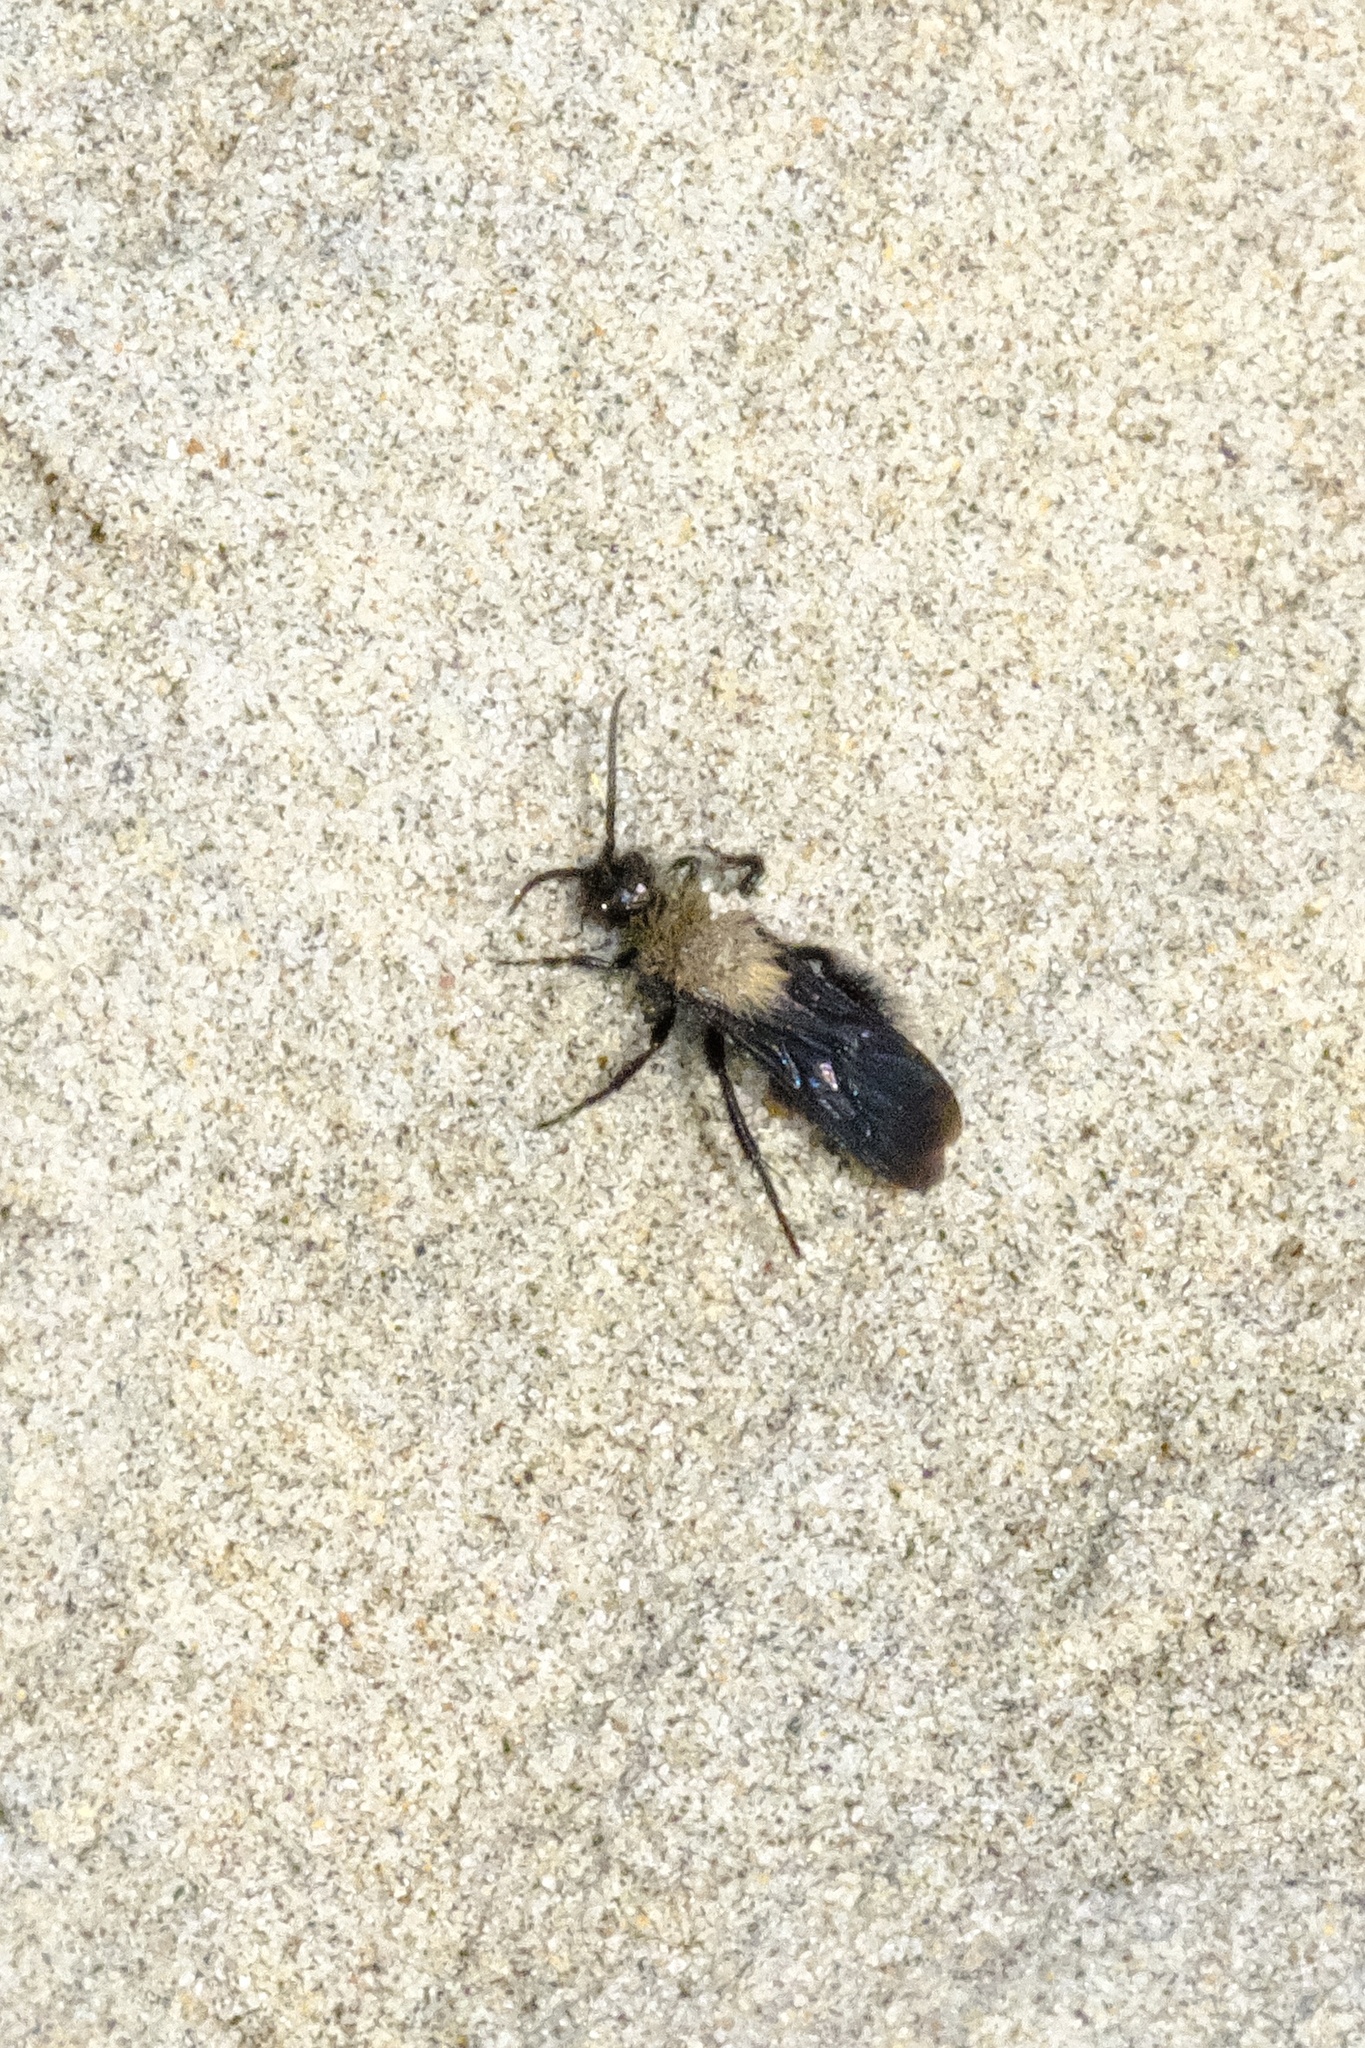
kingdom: Animalia
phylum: Arthropoda
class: Insecta
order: Hymenoptera
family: Mutillidae
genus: Dasymutilla
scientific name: Dasymutilla
